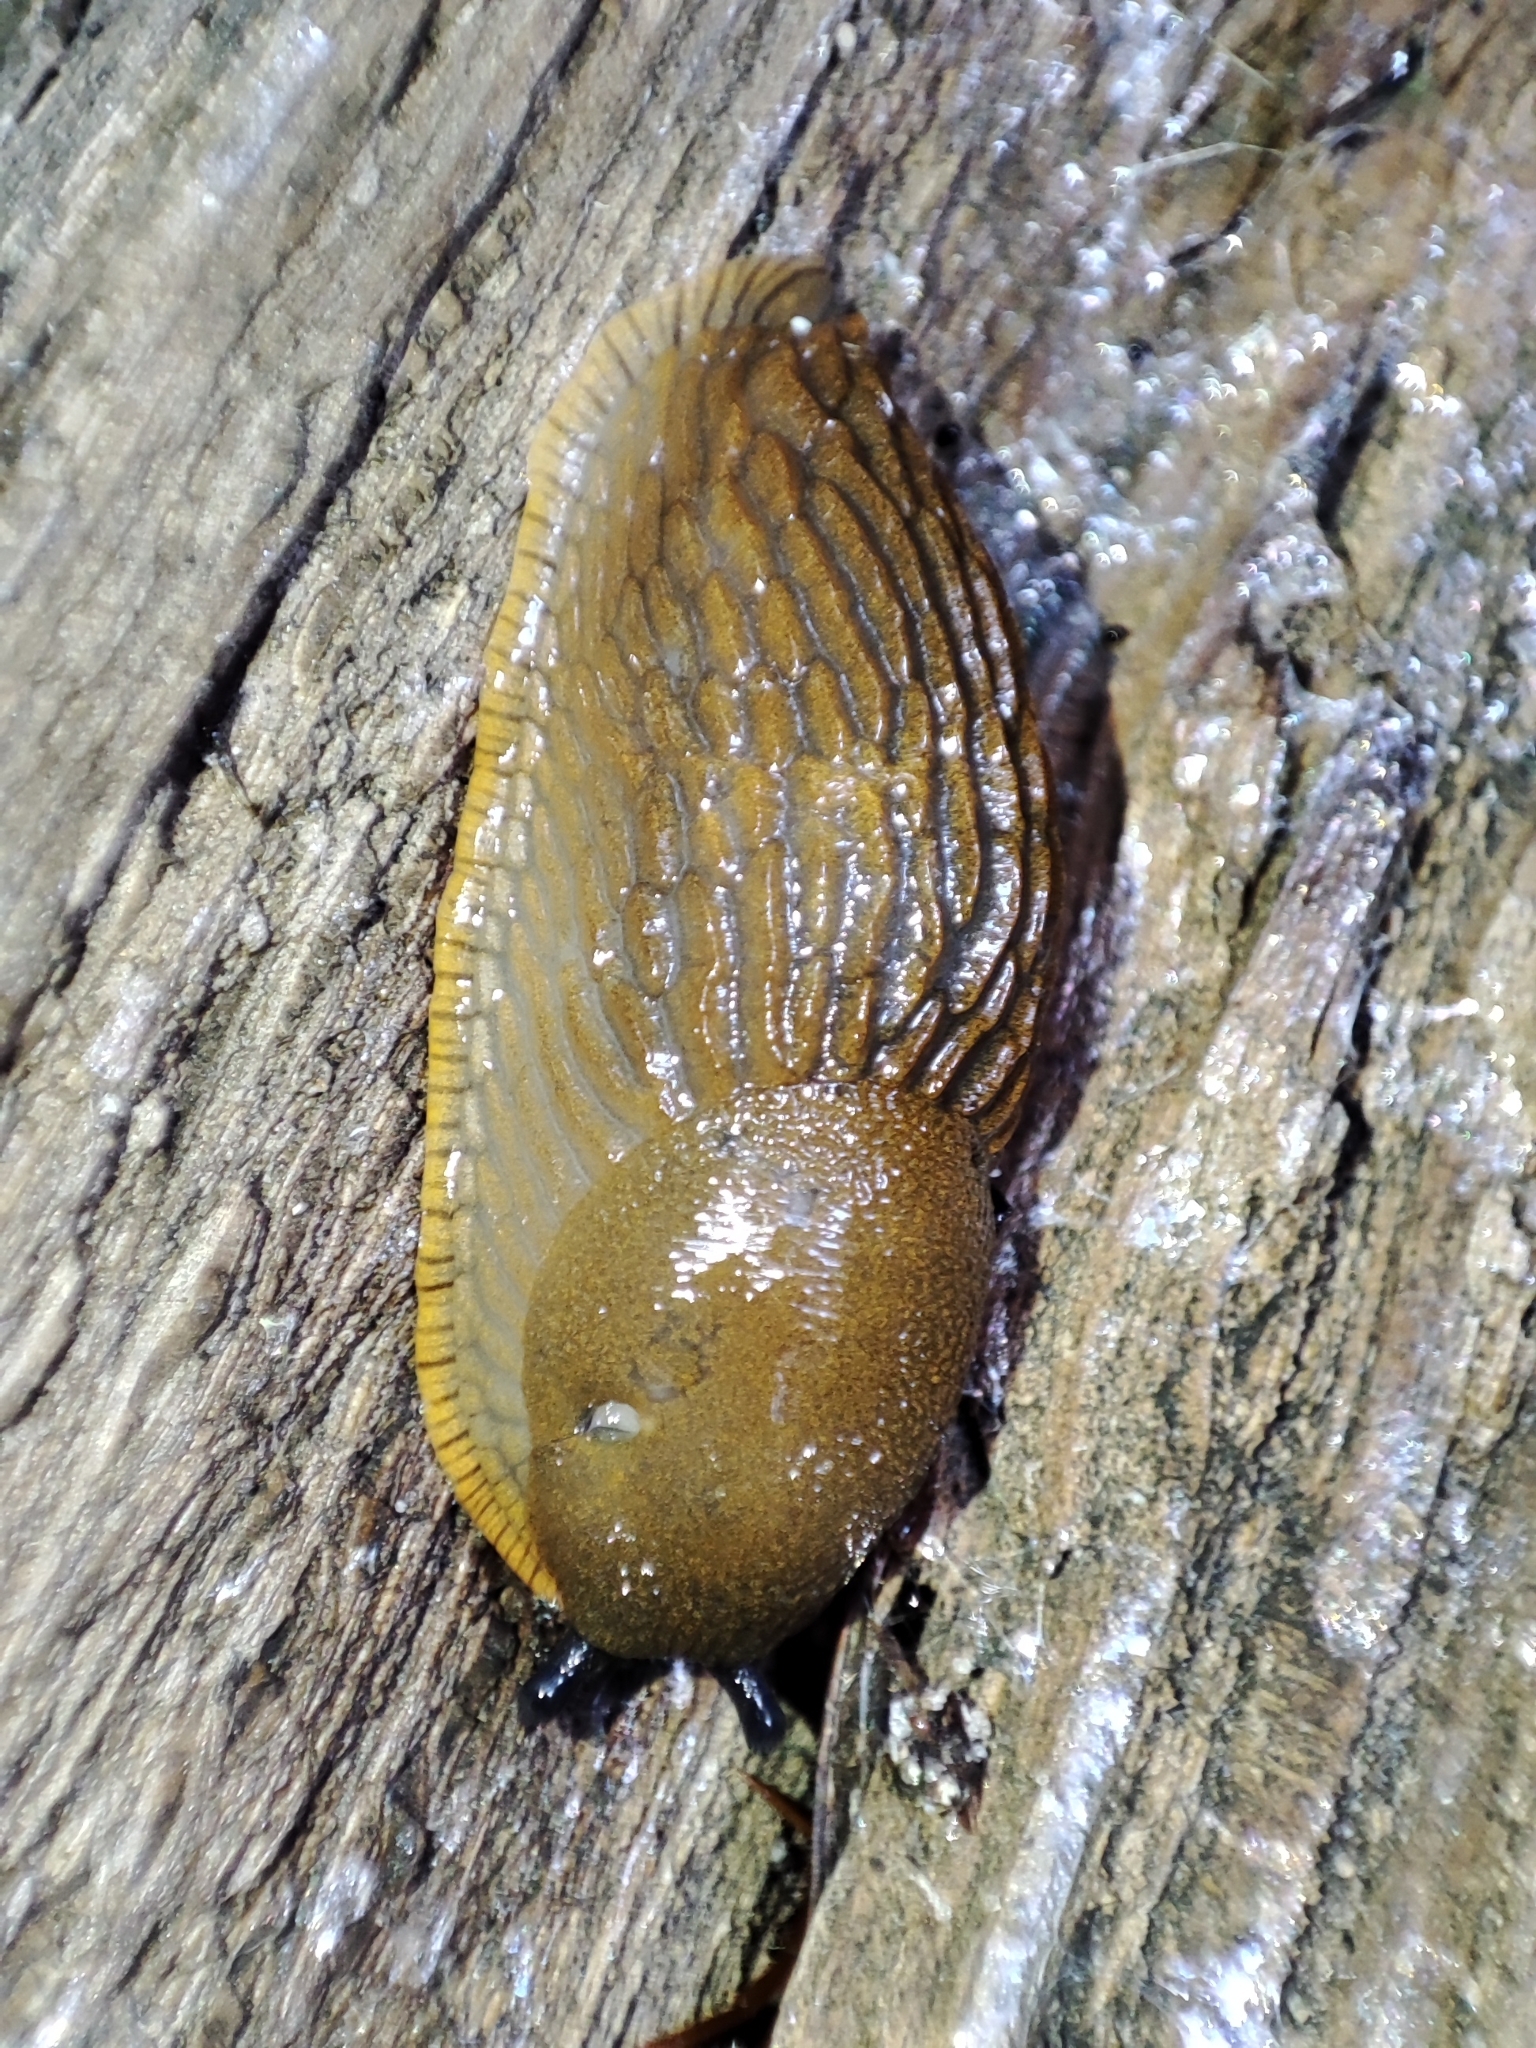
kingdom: Animalia
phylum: Mollusca
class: Gastropoda
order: Stylommatophora
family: Arionidae
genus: Arion
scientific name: Arion vulgaris
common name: Lusitanian slug
